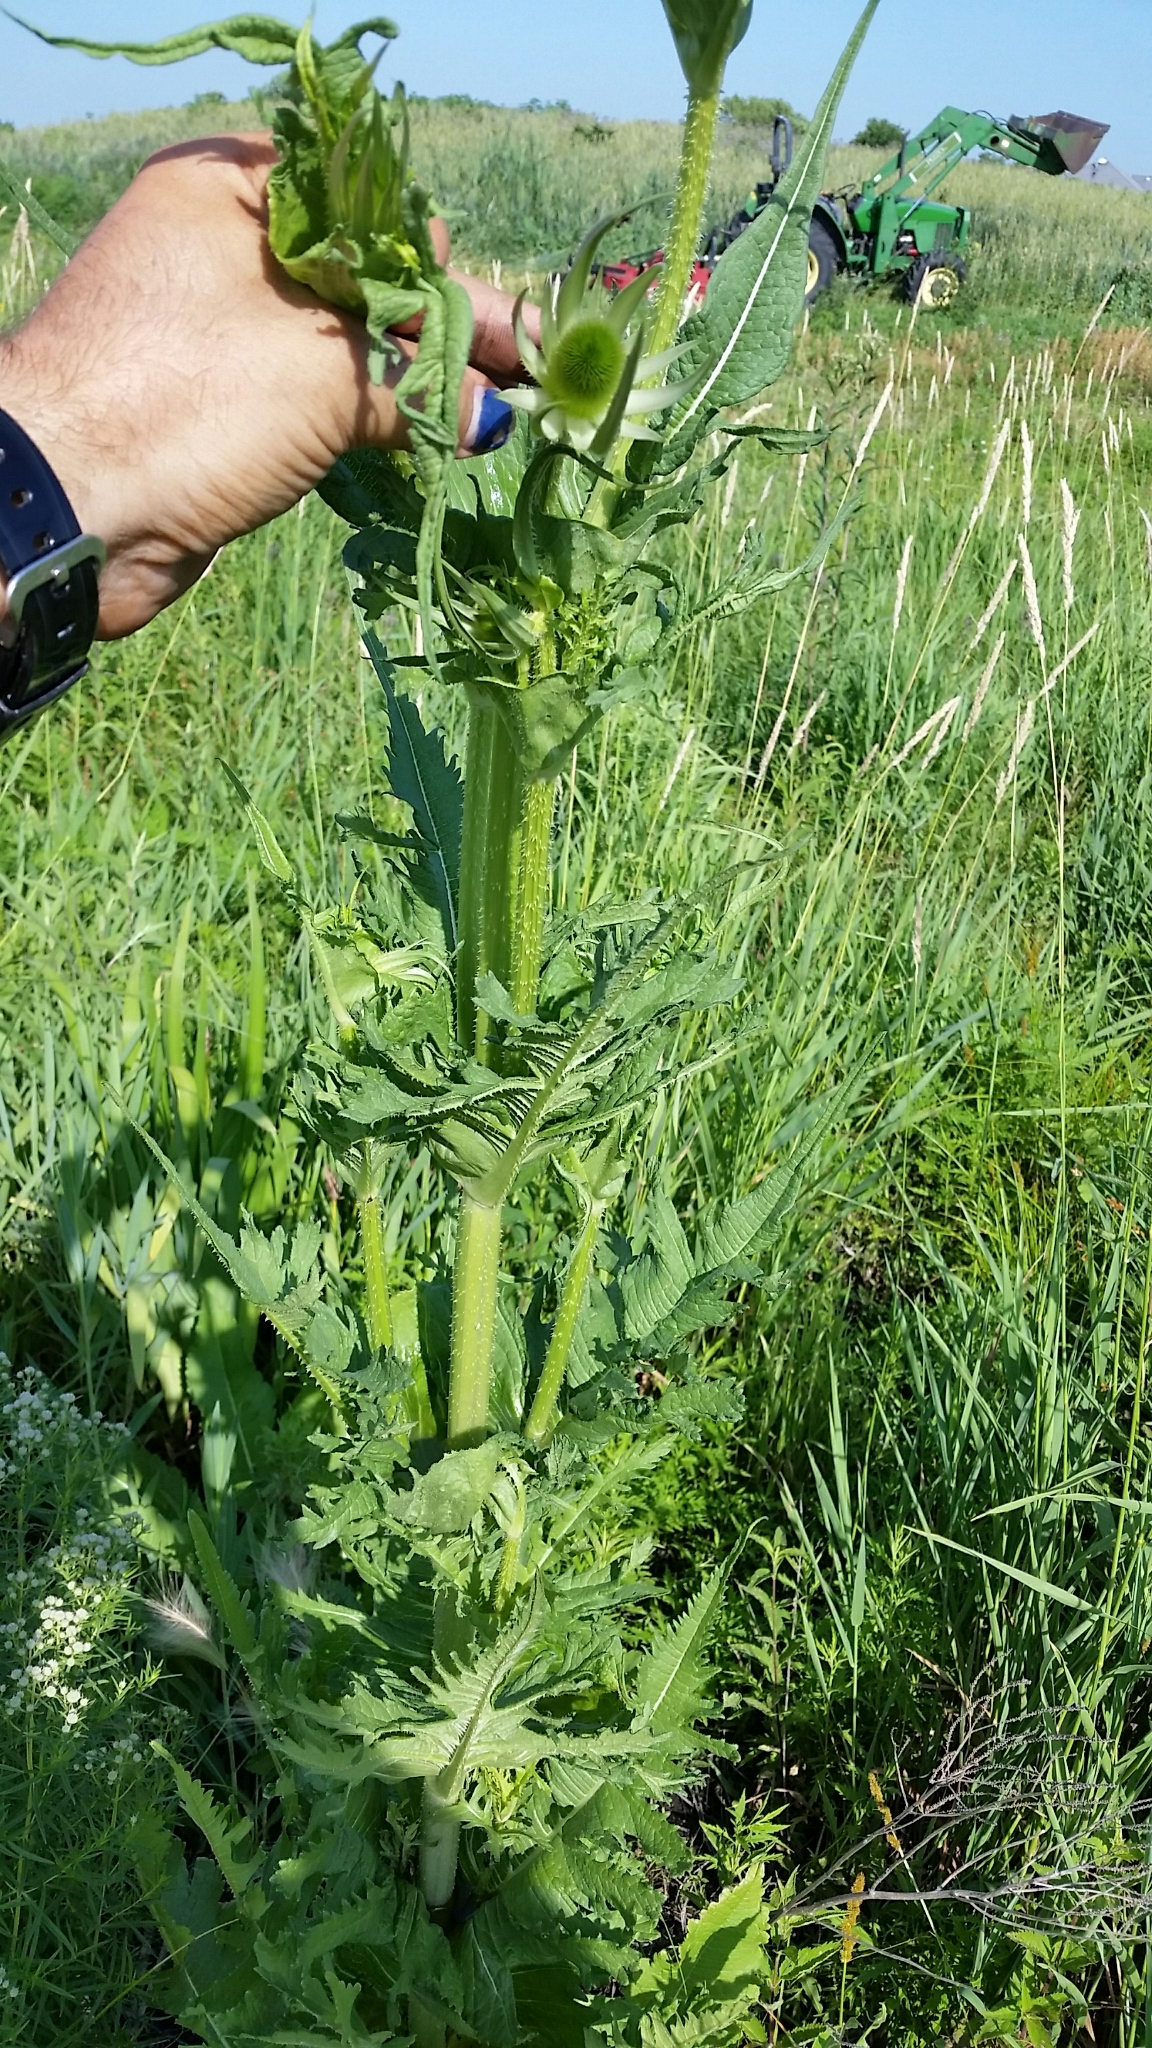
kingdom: Plantae
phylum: Tracheophyta
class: Magnoliopsida
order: Dipsacales
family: Caprifoliaceae
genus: Dipsacus
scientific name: Dipsacus laciniatus
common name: Cut-leaved teasel
